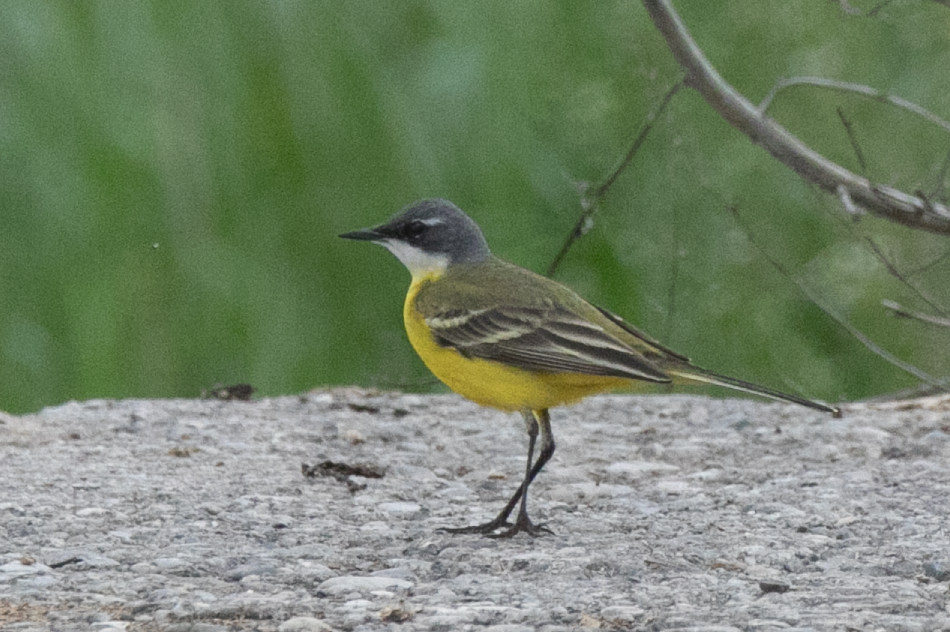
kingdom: Animalia
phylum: Chordata
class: Aves
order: Passeriformes
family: Motacillidae
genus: Motacilla
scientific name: Motacilla flava
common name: Western yellow wagtail
